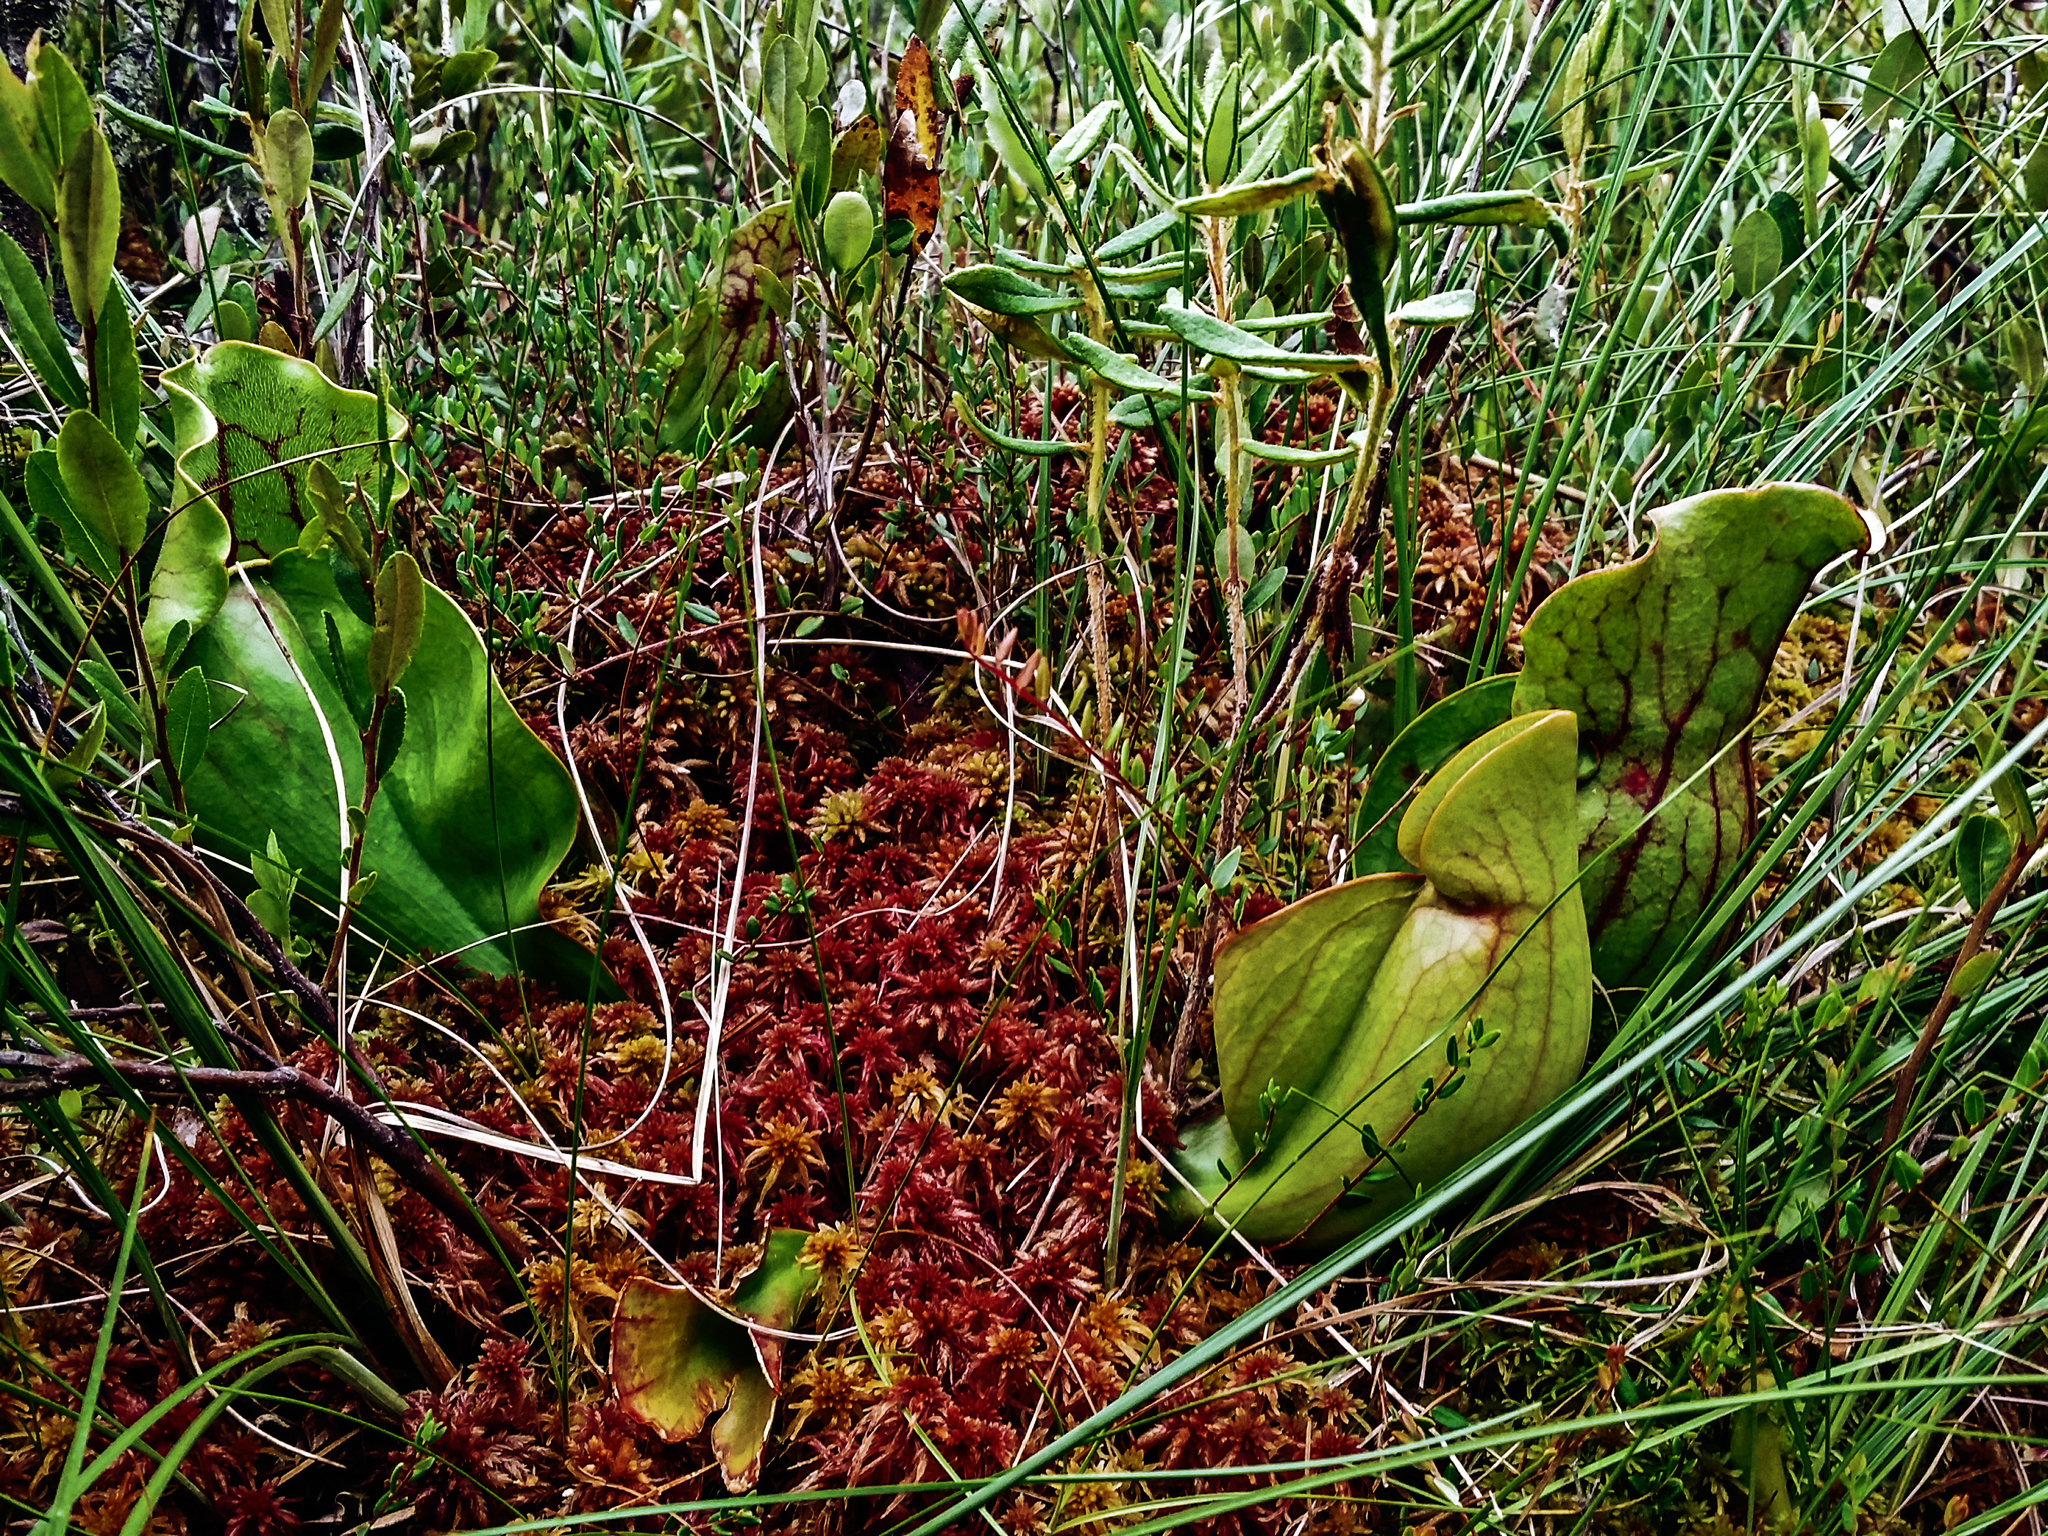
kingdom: Plantae
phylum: Tracheophyta
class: Magnoliopsida
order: Ericales
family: Sarraceniaceae
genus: Sarracenia
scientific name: Sarracenia purpurea
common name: Pitcherplant
